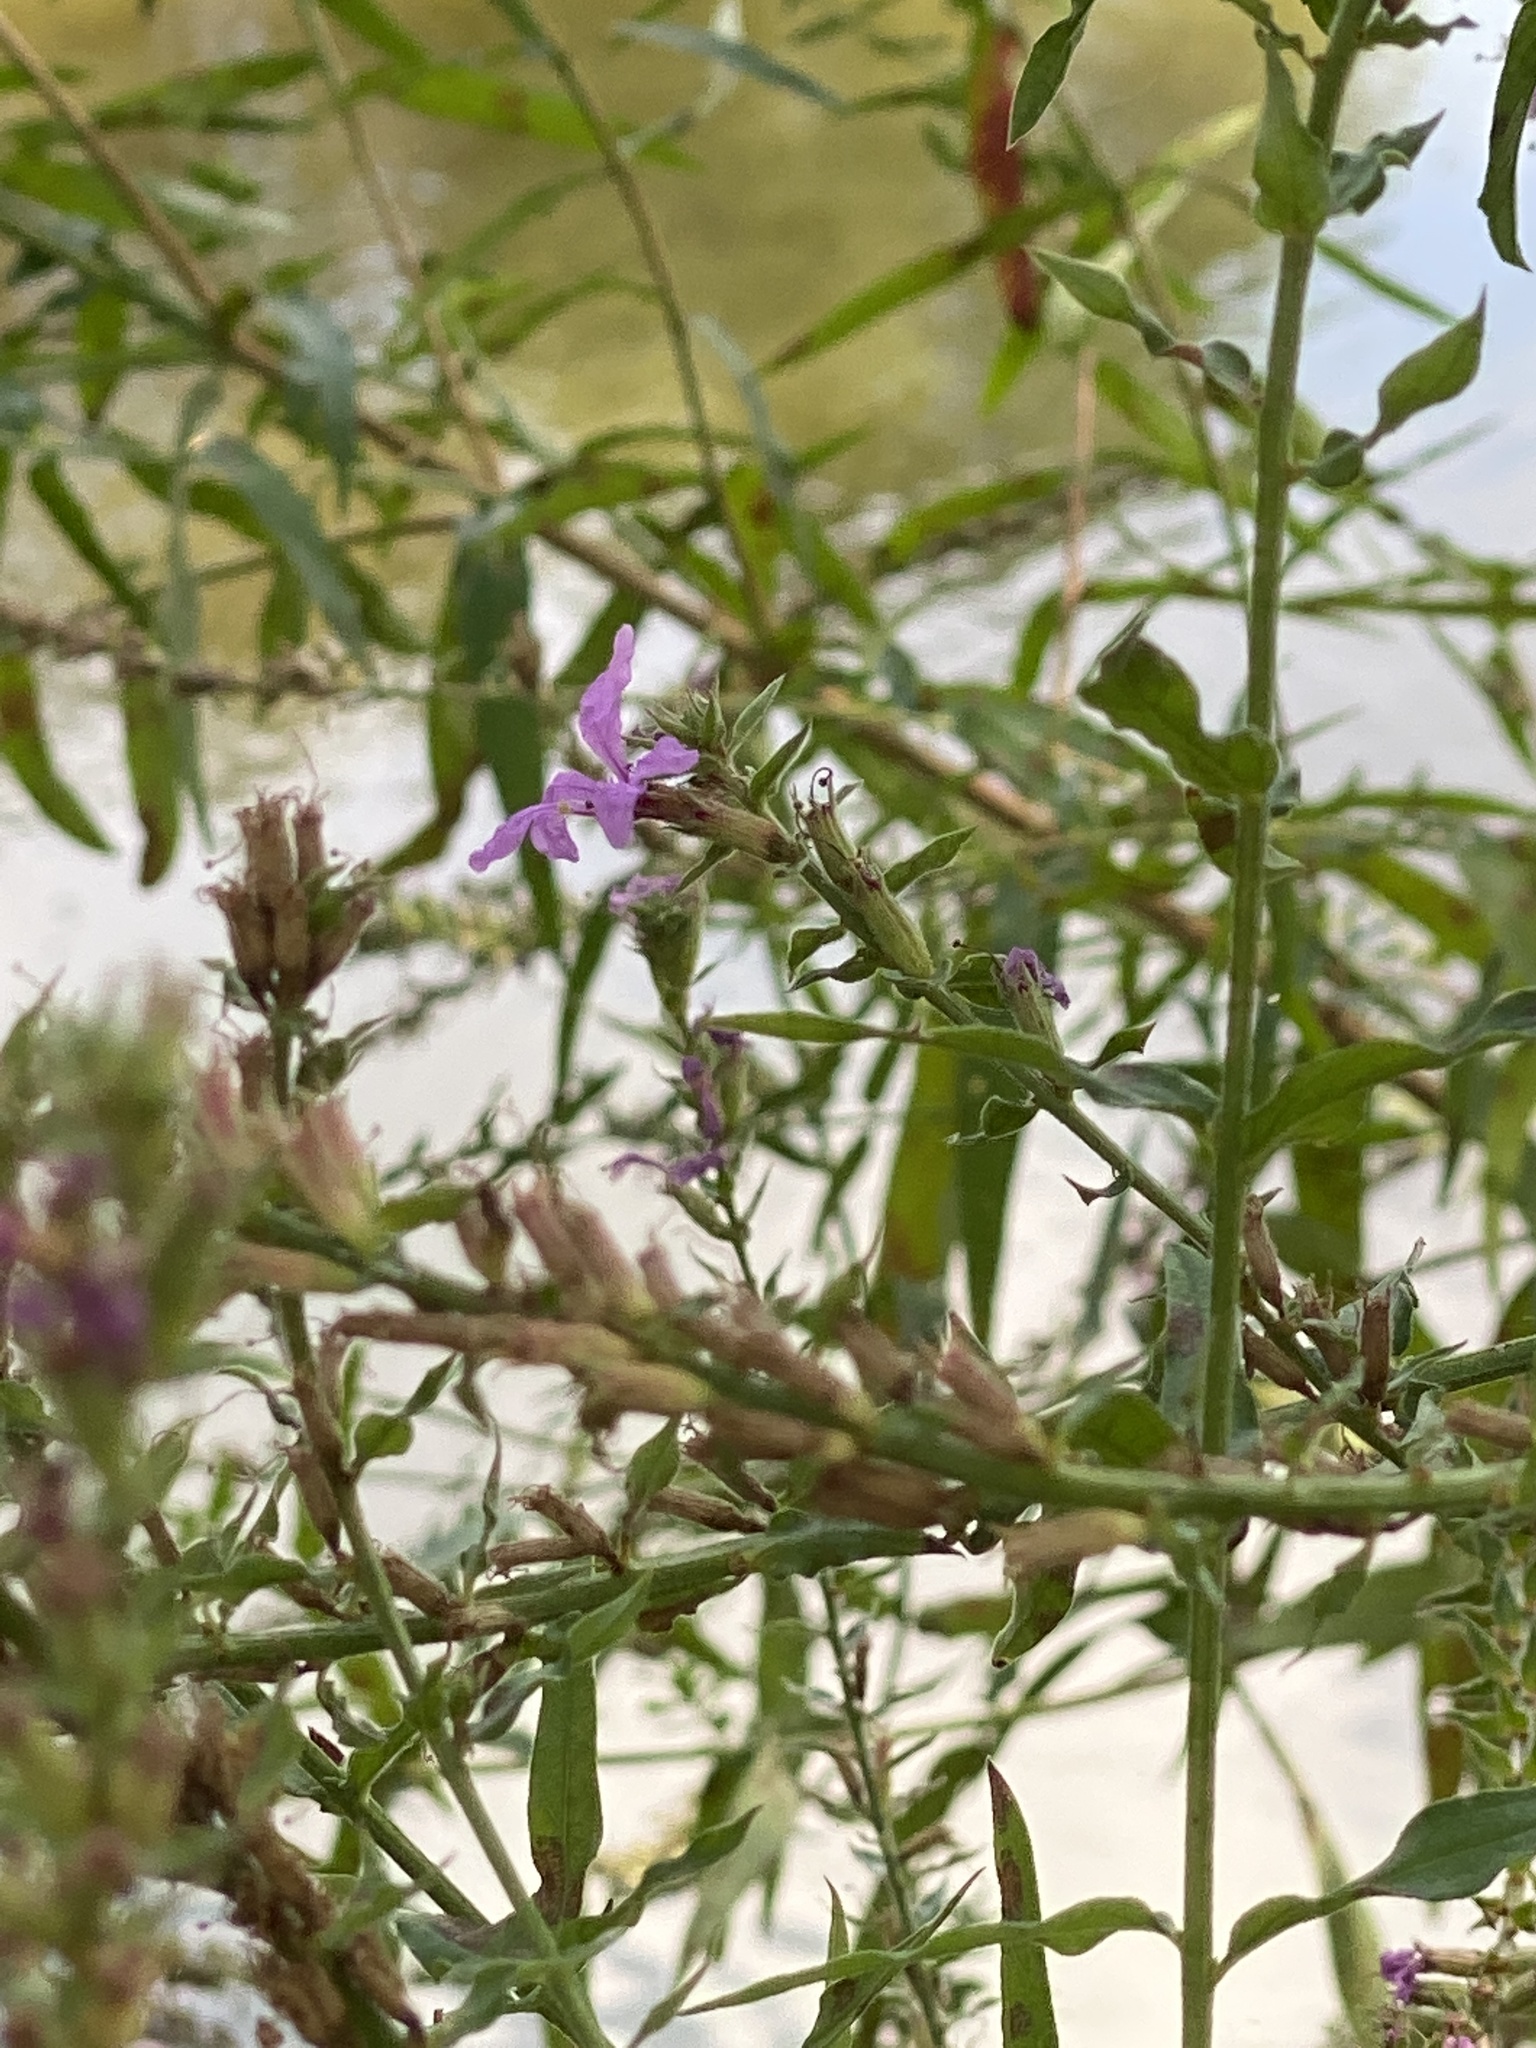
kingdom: Plantae
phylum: Tracheophyta
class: Magnoliopsida
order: Myrtales
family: Lythraceae
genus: Lythrum
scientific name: Lythrum salicaria
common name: Purple loosestrife
